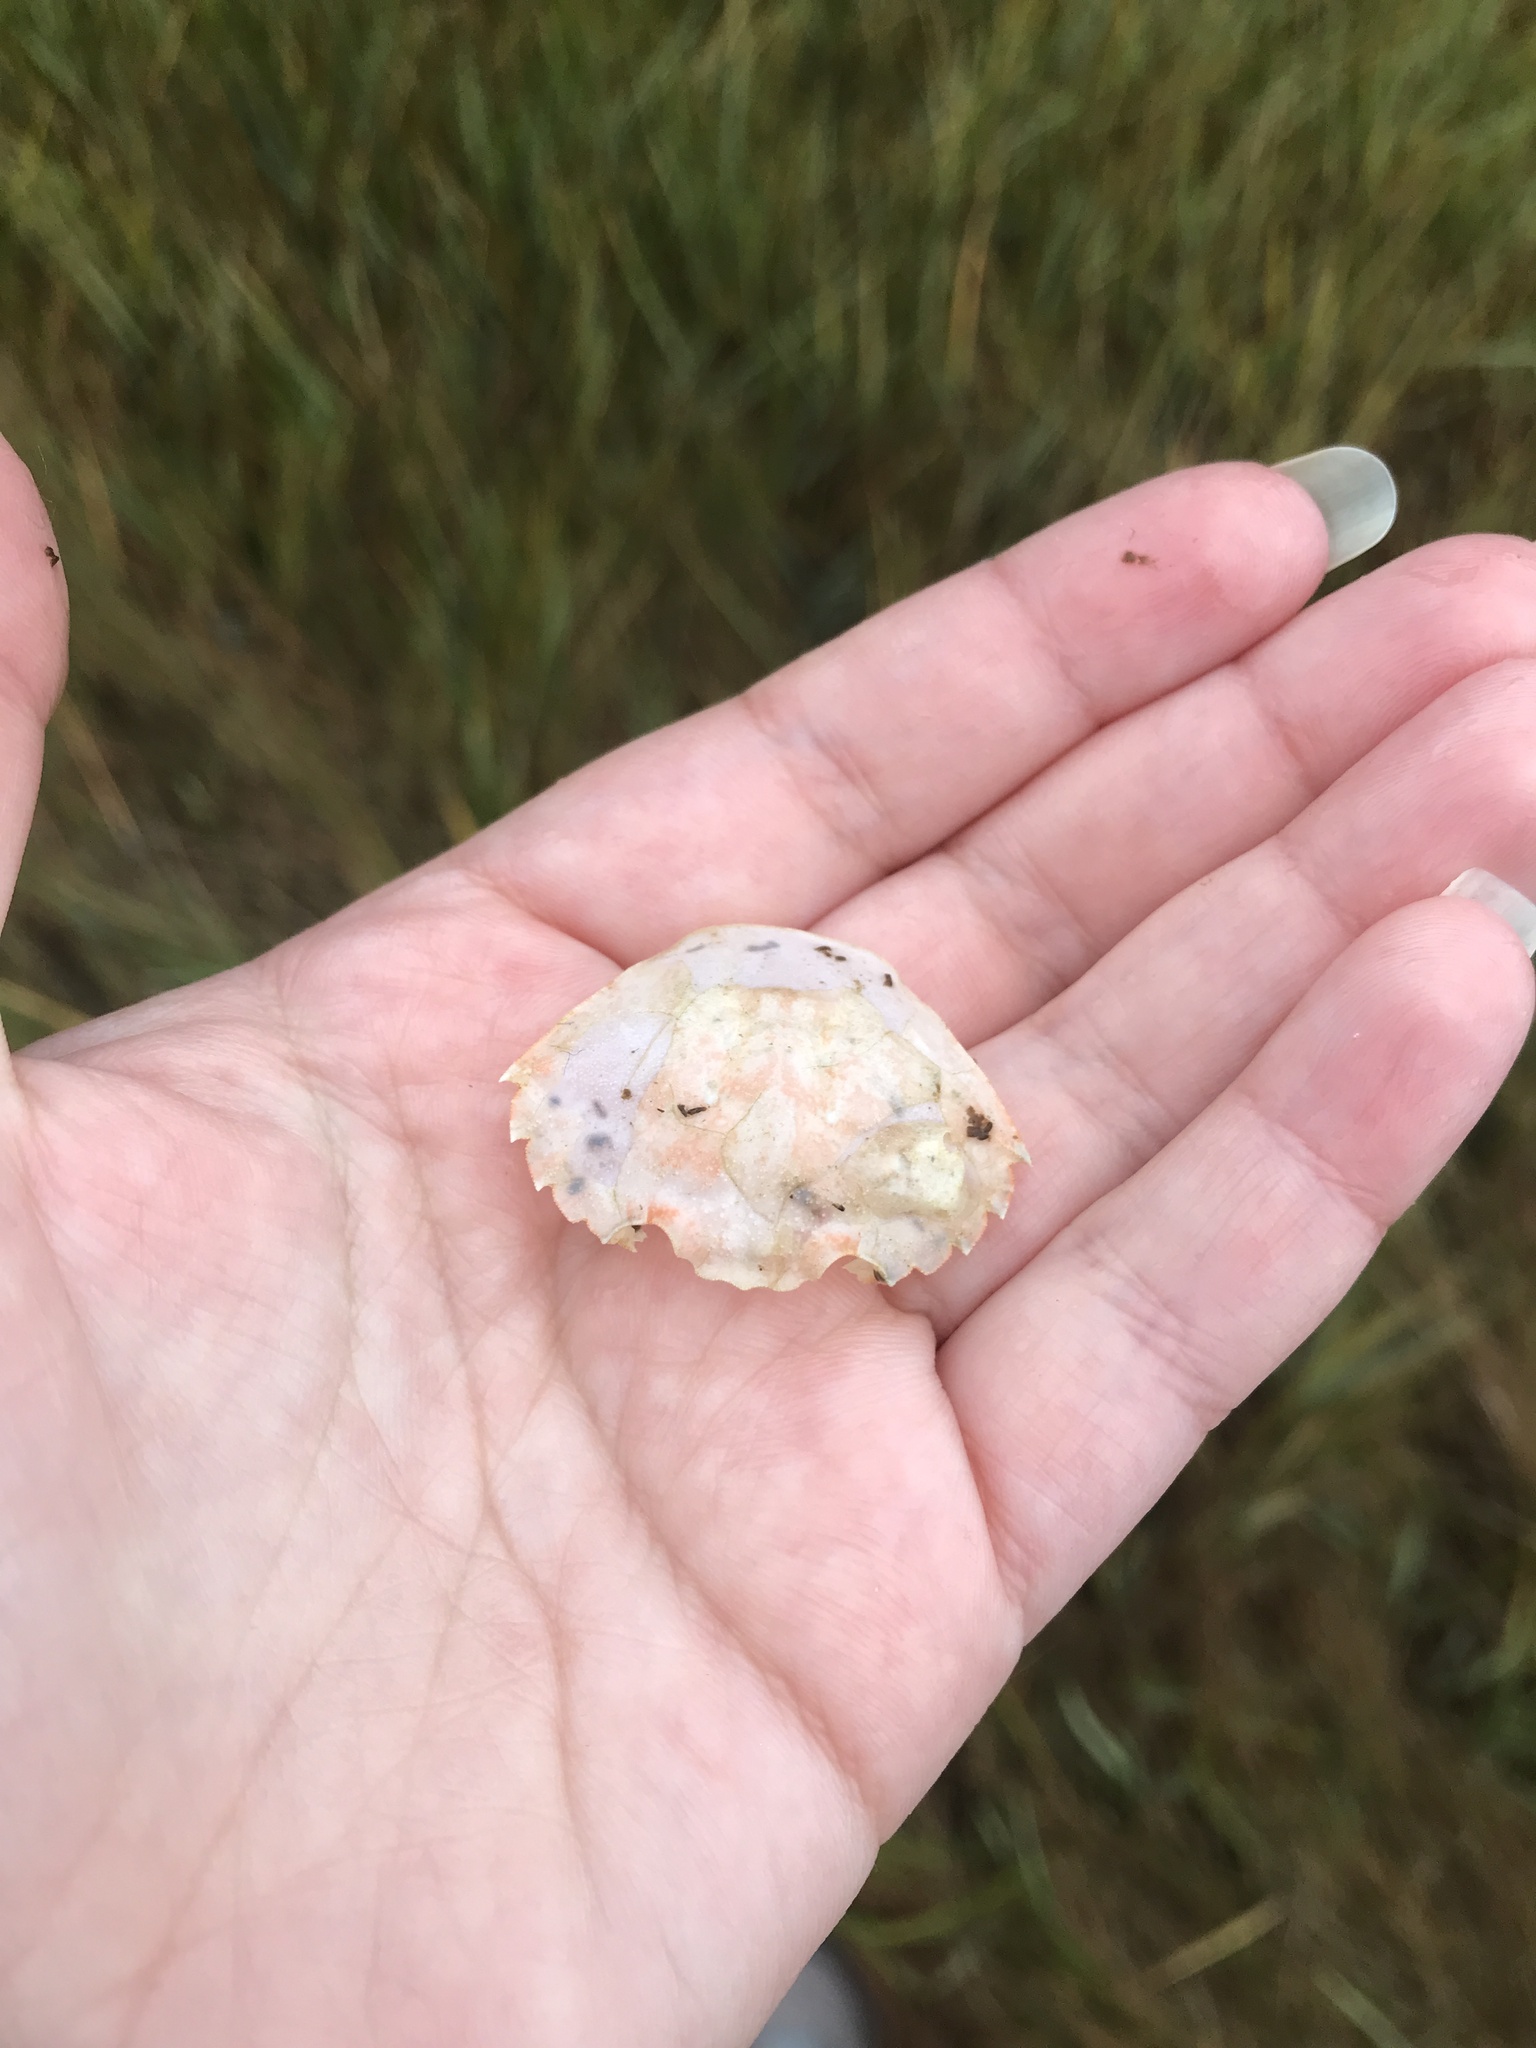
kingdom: Animalia
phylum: Arthropoda
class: Malacostraca
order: Decapoda
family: Carcinidae
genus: Carcinus
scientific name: Carcinus maenas
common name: European green crab
